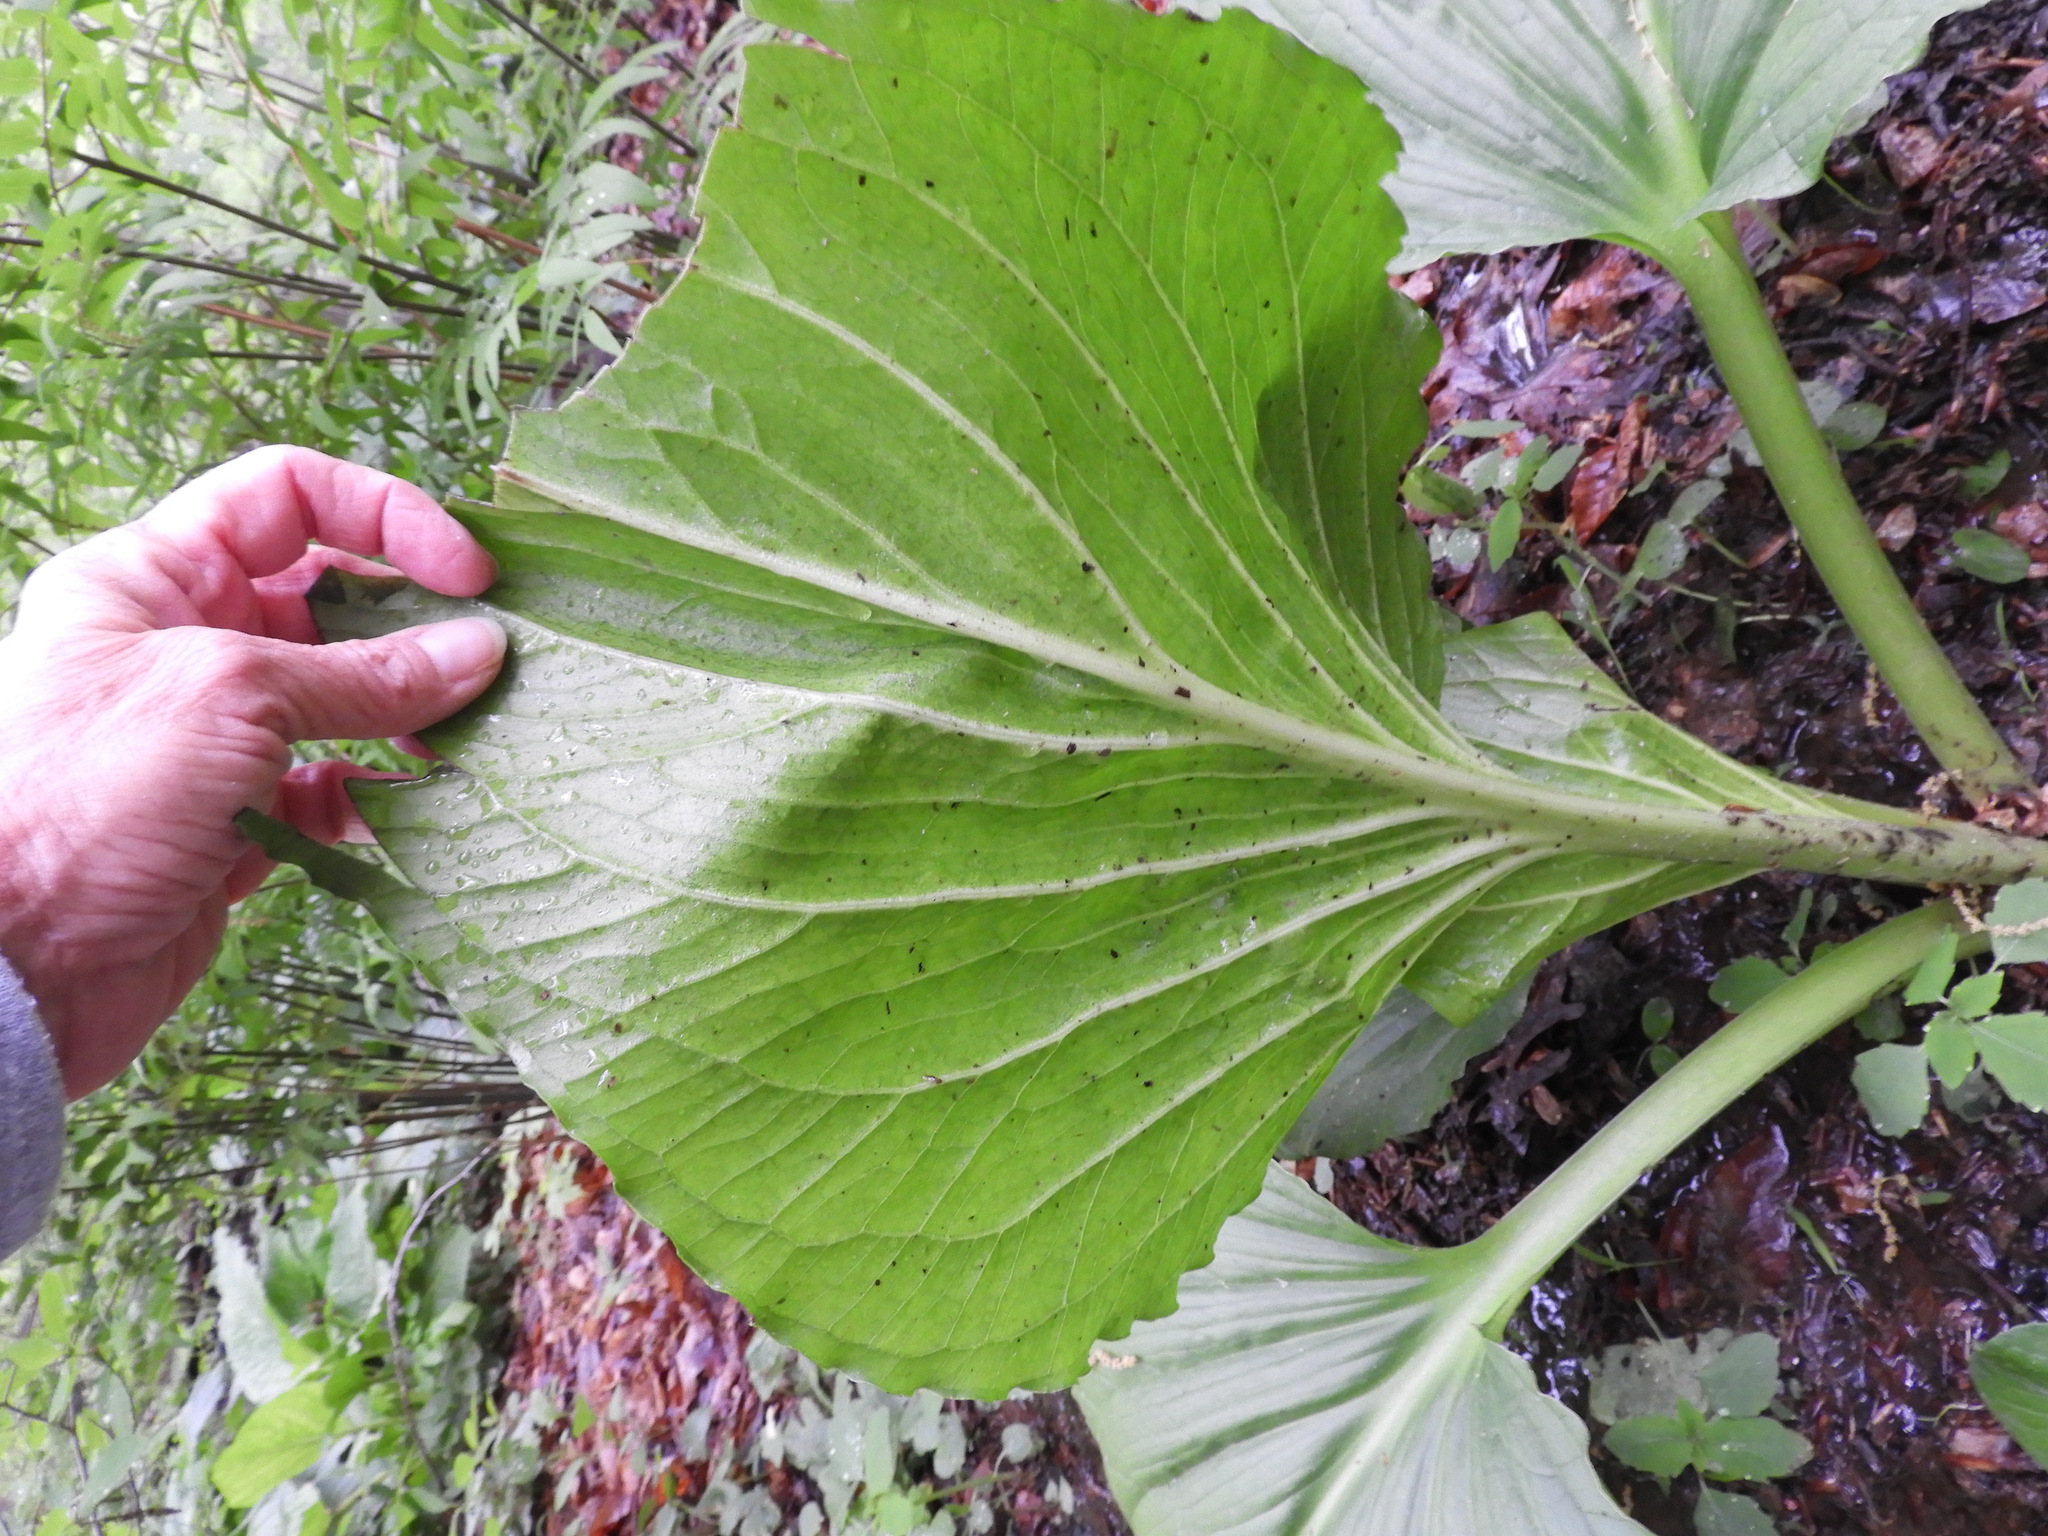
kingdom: Plantae
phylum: Tracheophyta
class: Liliopsida
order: Alismatales
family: Araceae
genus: Symplocarpus
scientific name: Symplocarpus foetidus
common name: Eastern skunk cabbage
